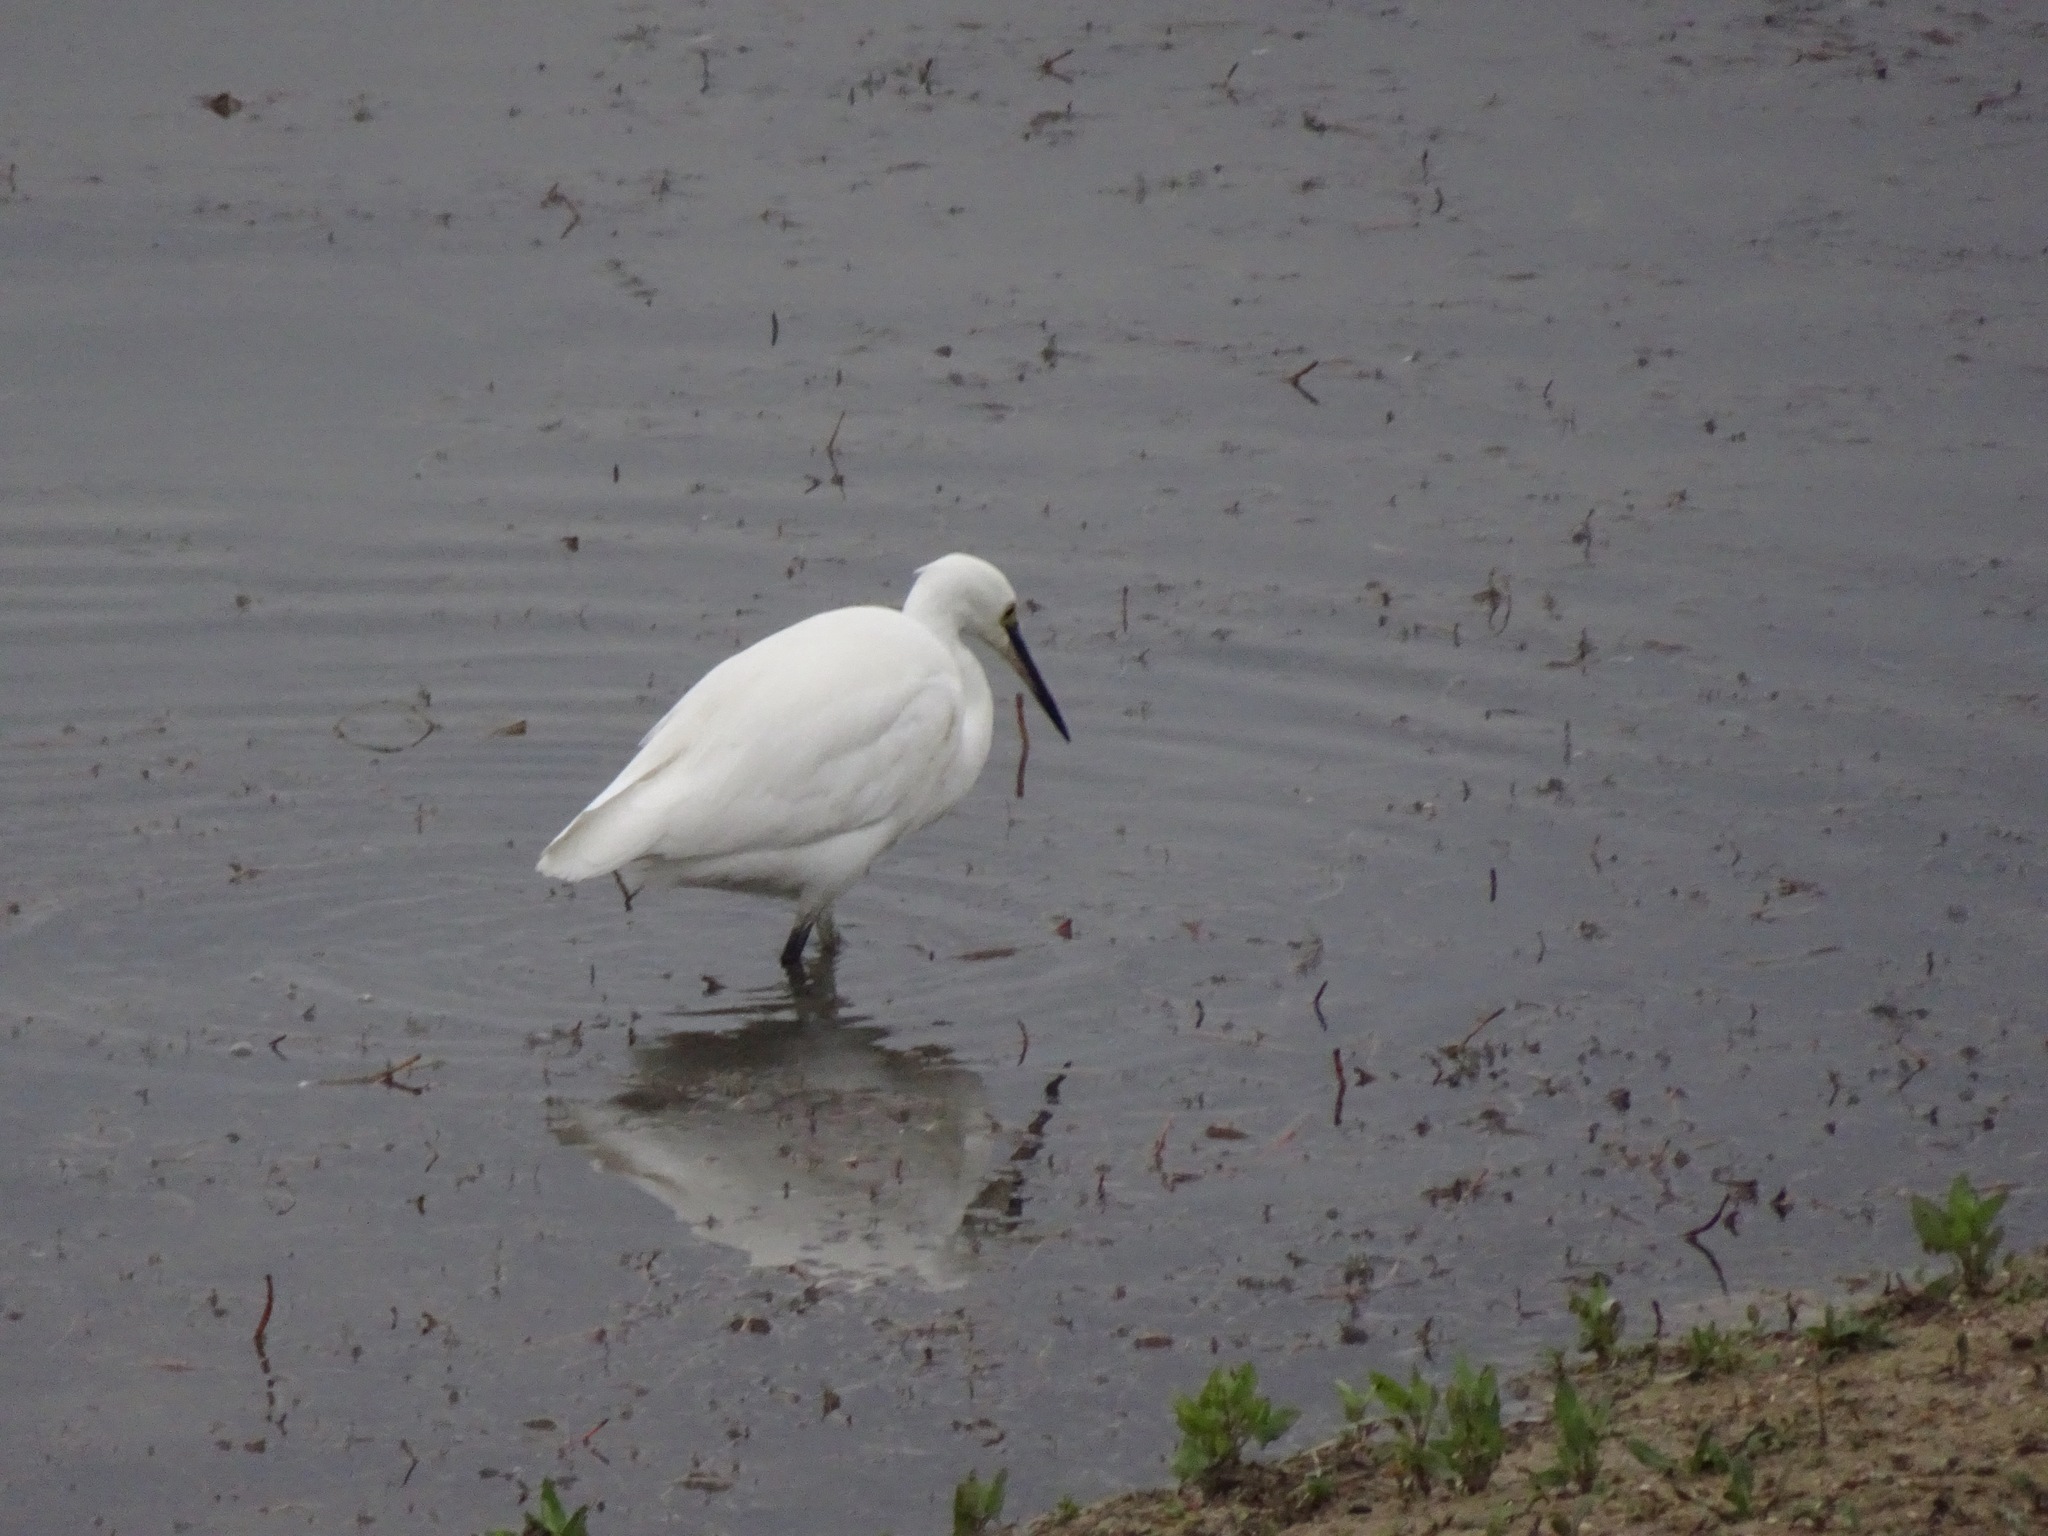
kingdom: Animalia
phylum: Chordata
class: Aves
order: Pelecaniformes
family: Ardeidae
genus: Egretta
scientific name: Egretta garzetta
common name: Little egret
